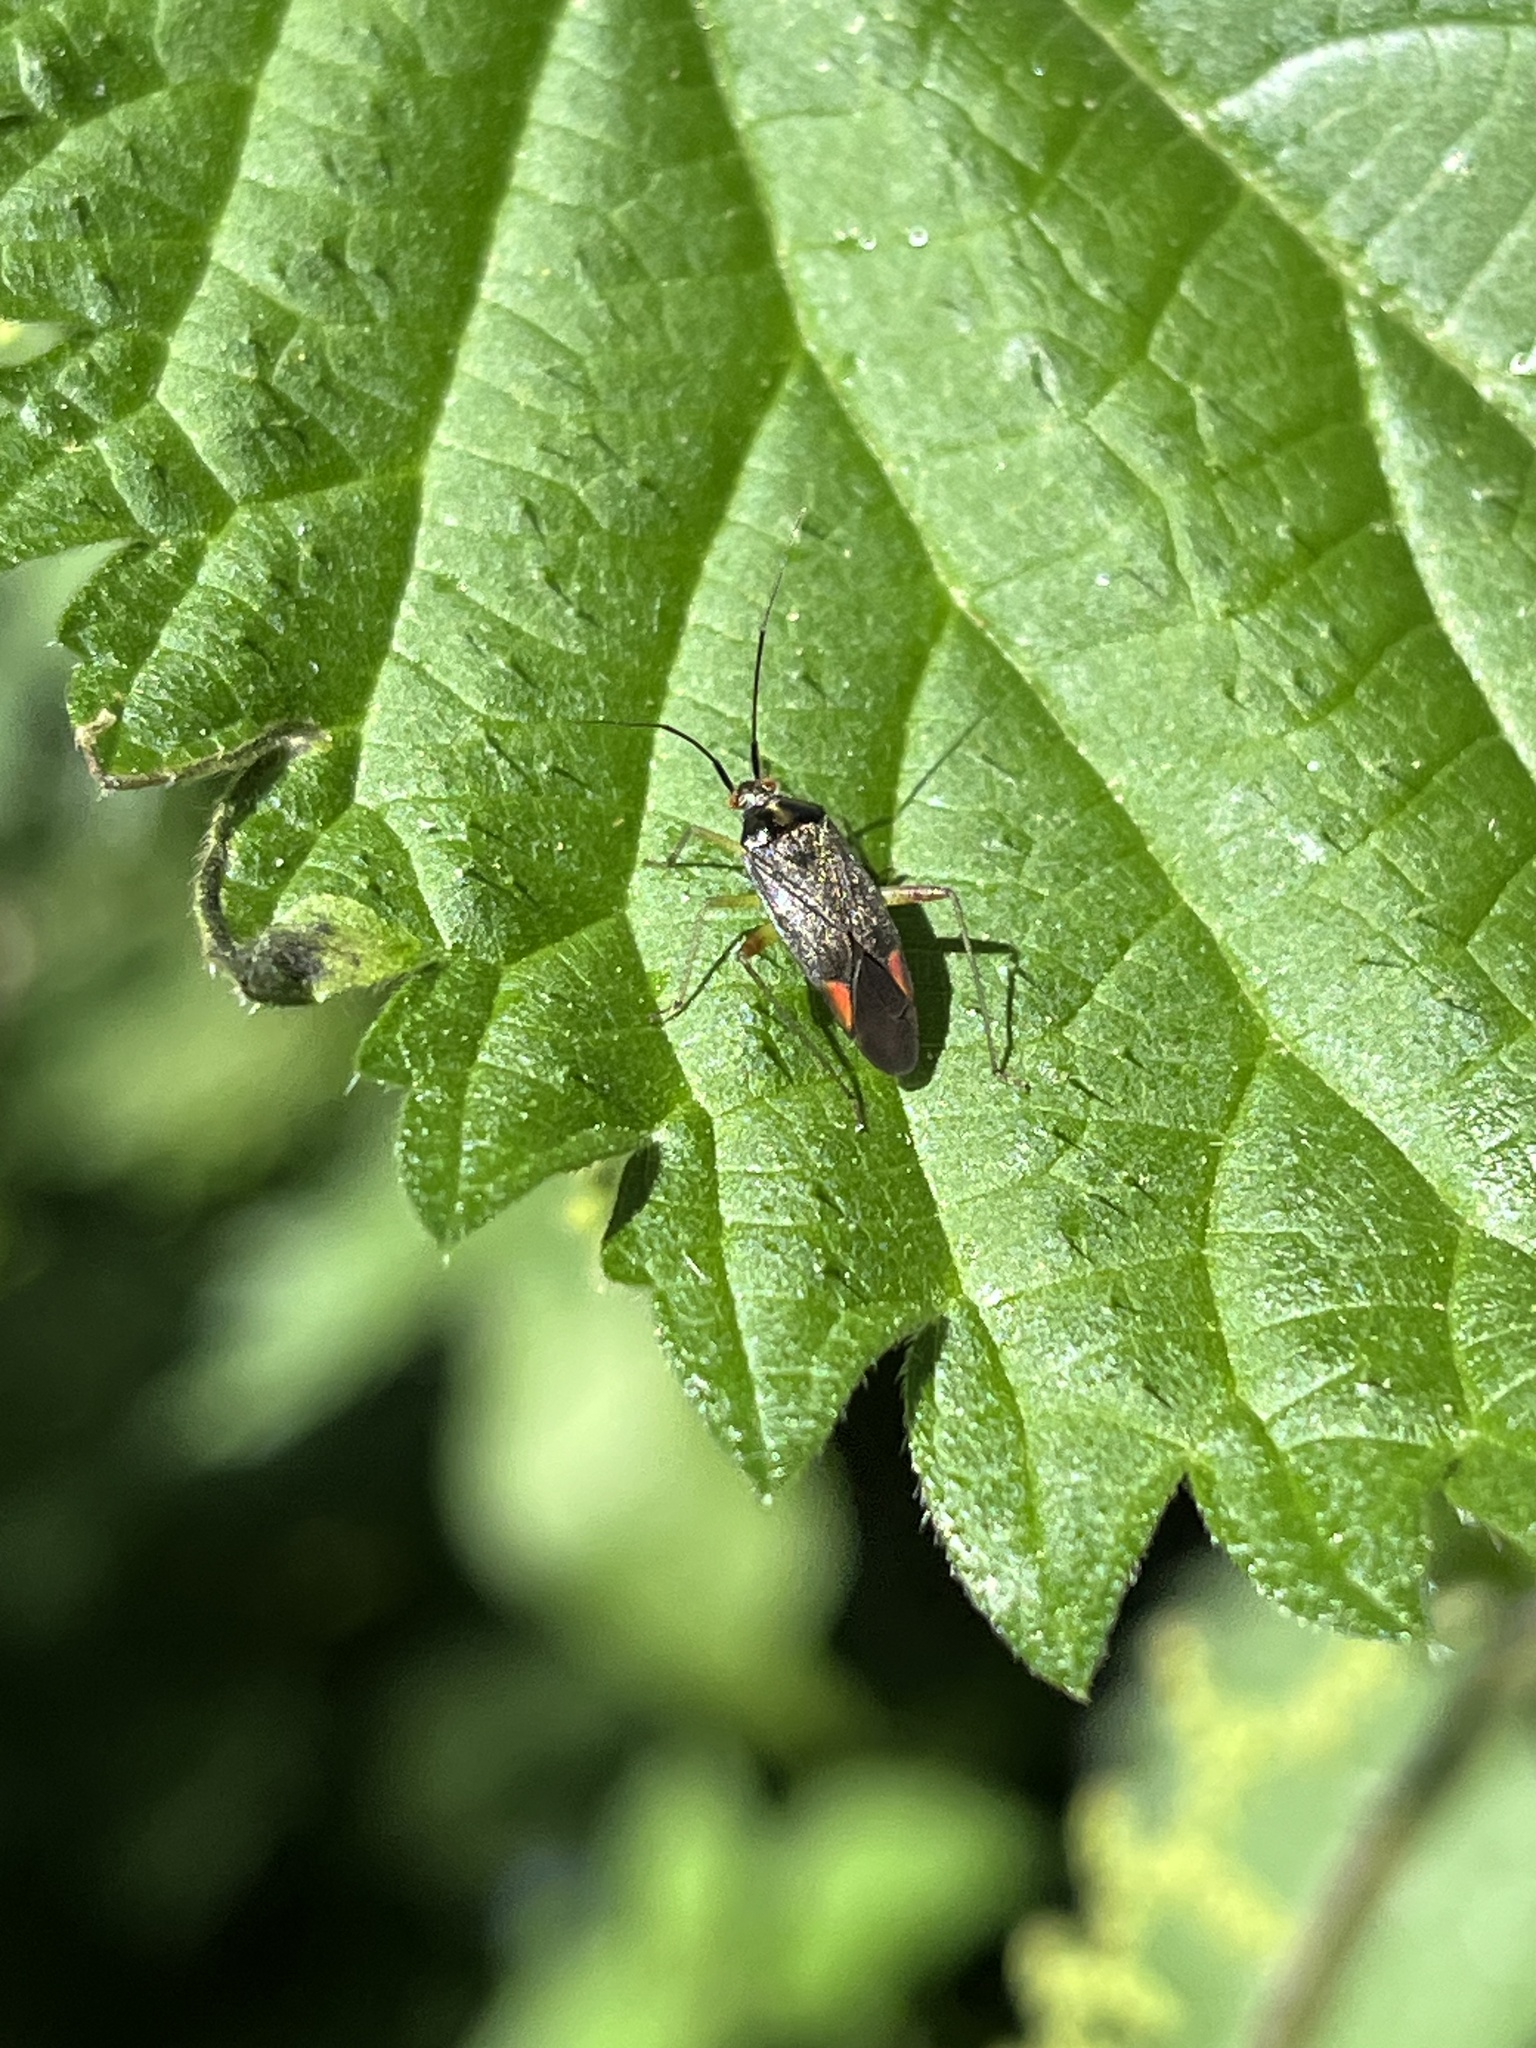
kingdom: Animalia
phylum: Arthropoda
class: Insecta
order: Hemiptera
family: Miridae
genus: Closterotomus
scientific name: Closterotomus trivialis
